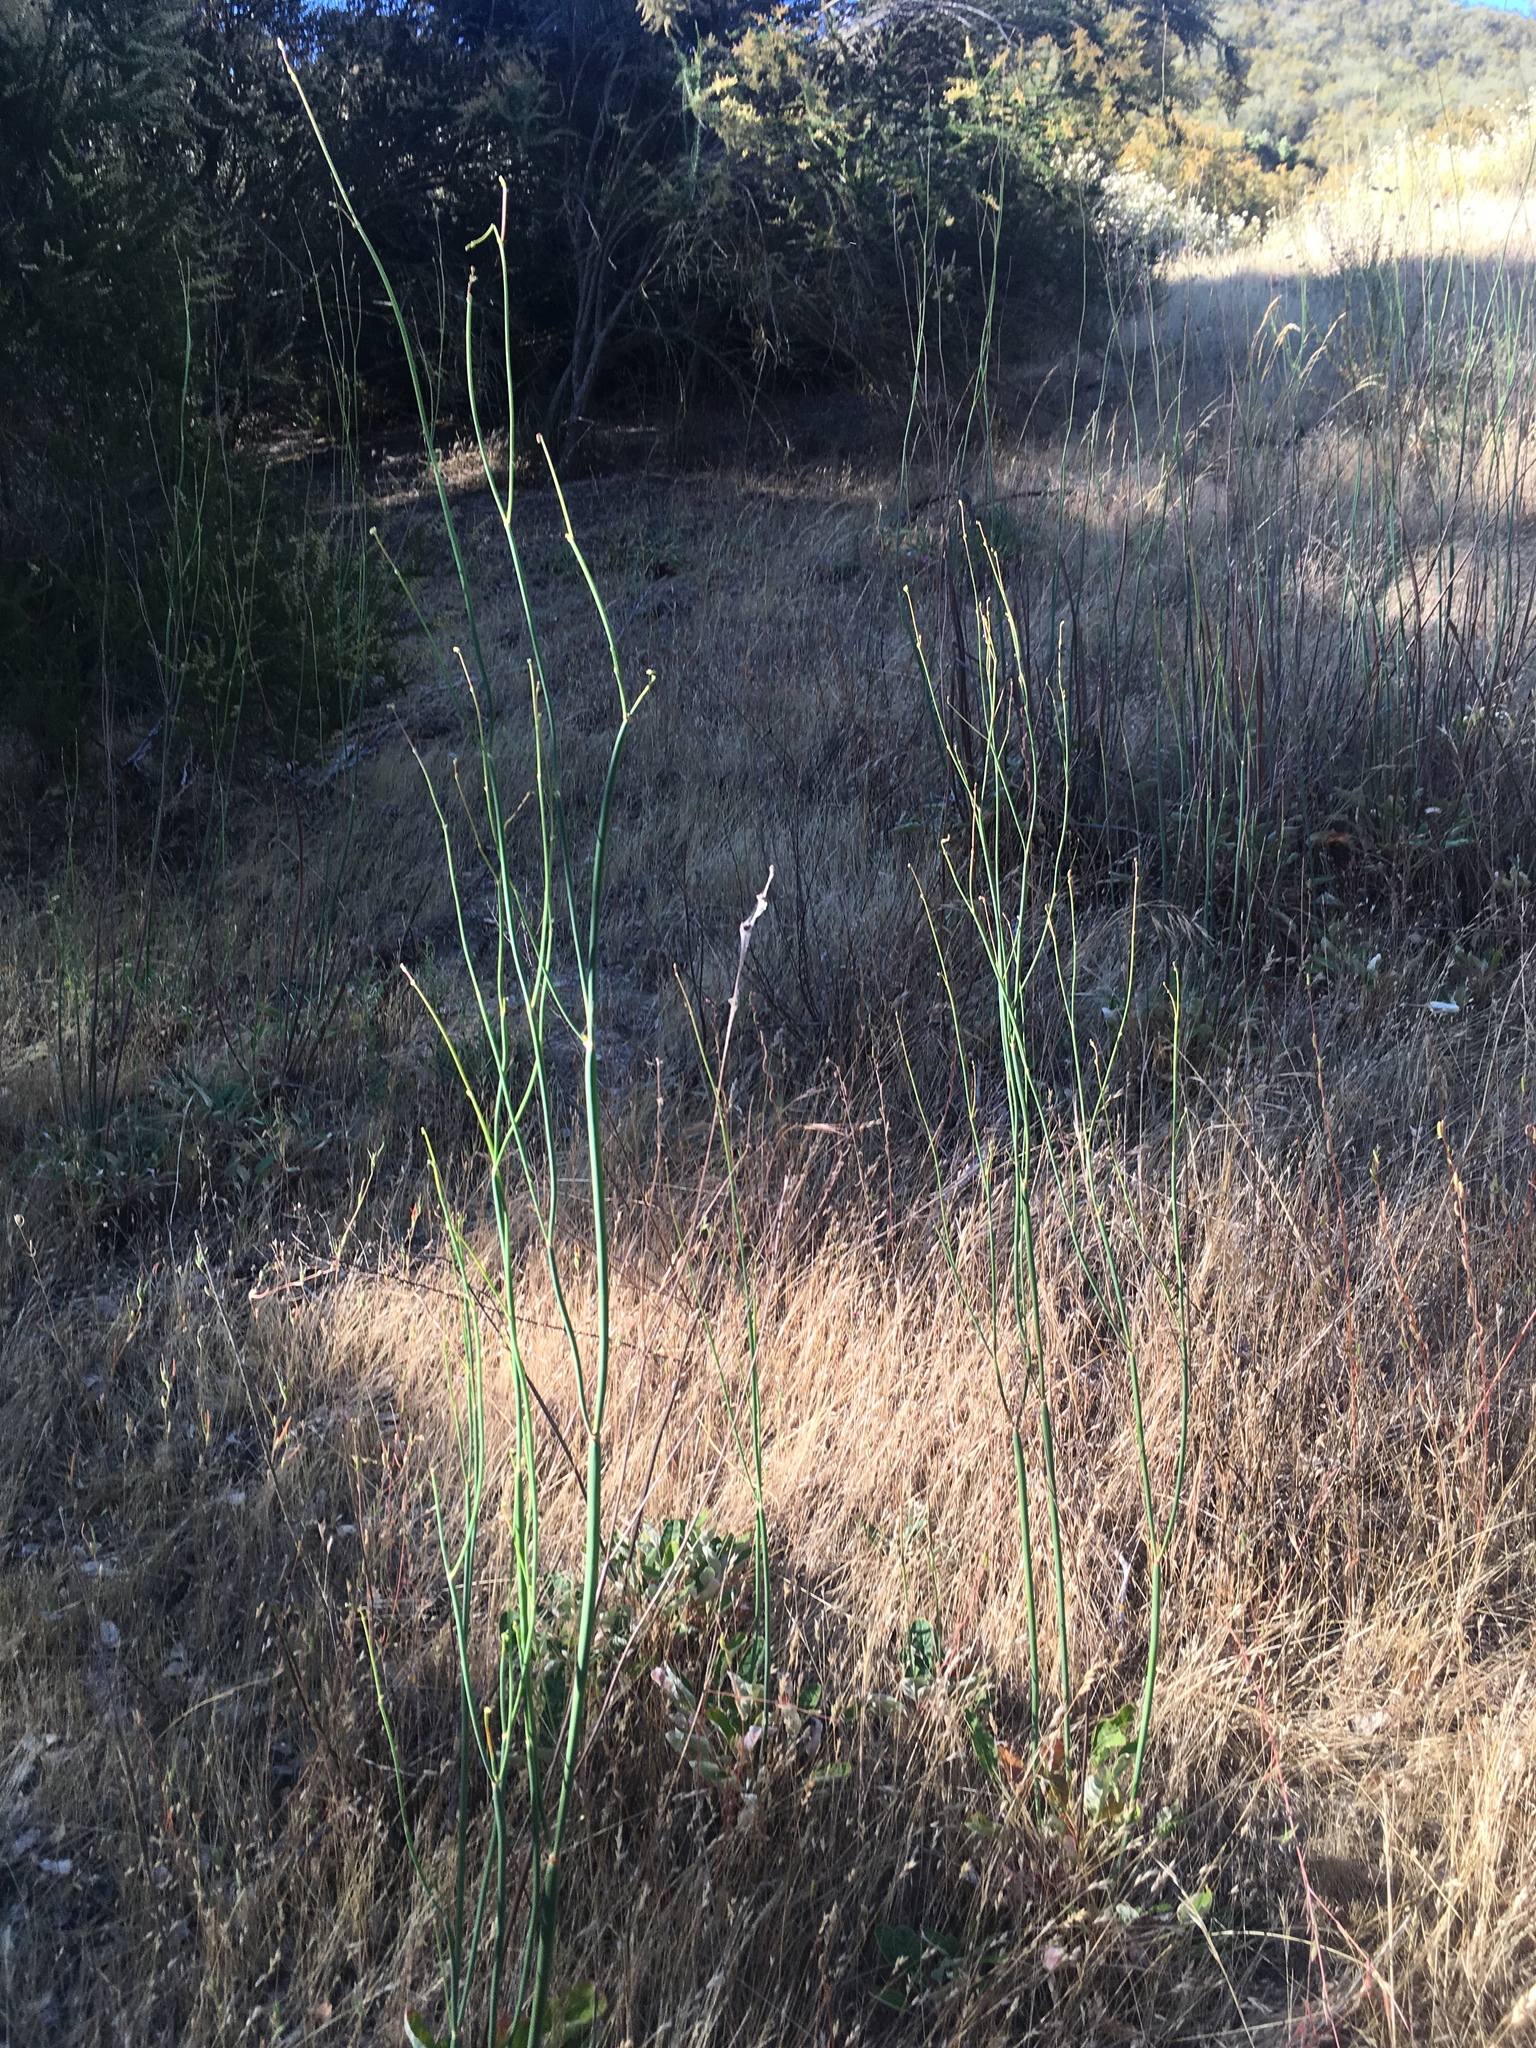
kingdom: Plantae
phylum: Tracheophyta
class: Magnoliopsida
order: Caryophyllales
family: Polygonaceae
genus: Eriogonum
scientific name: Eriogonum nudum
